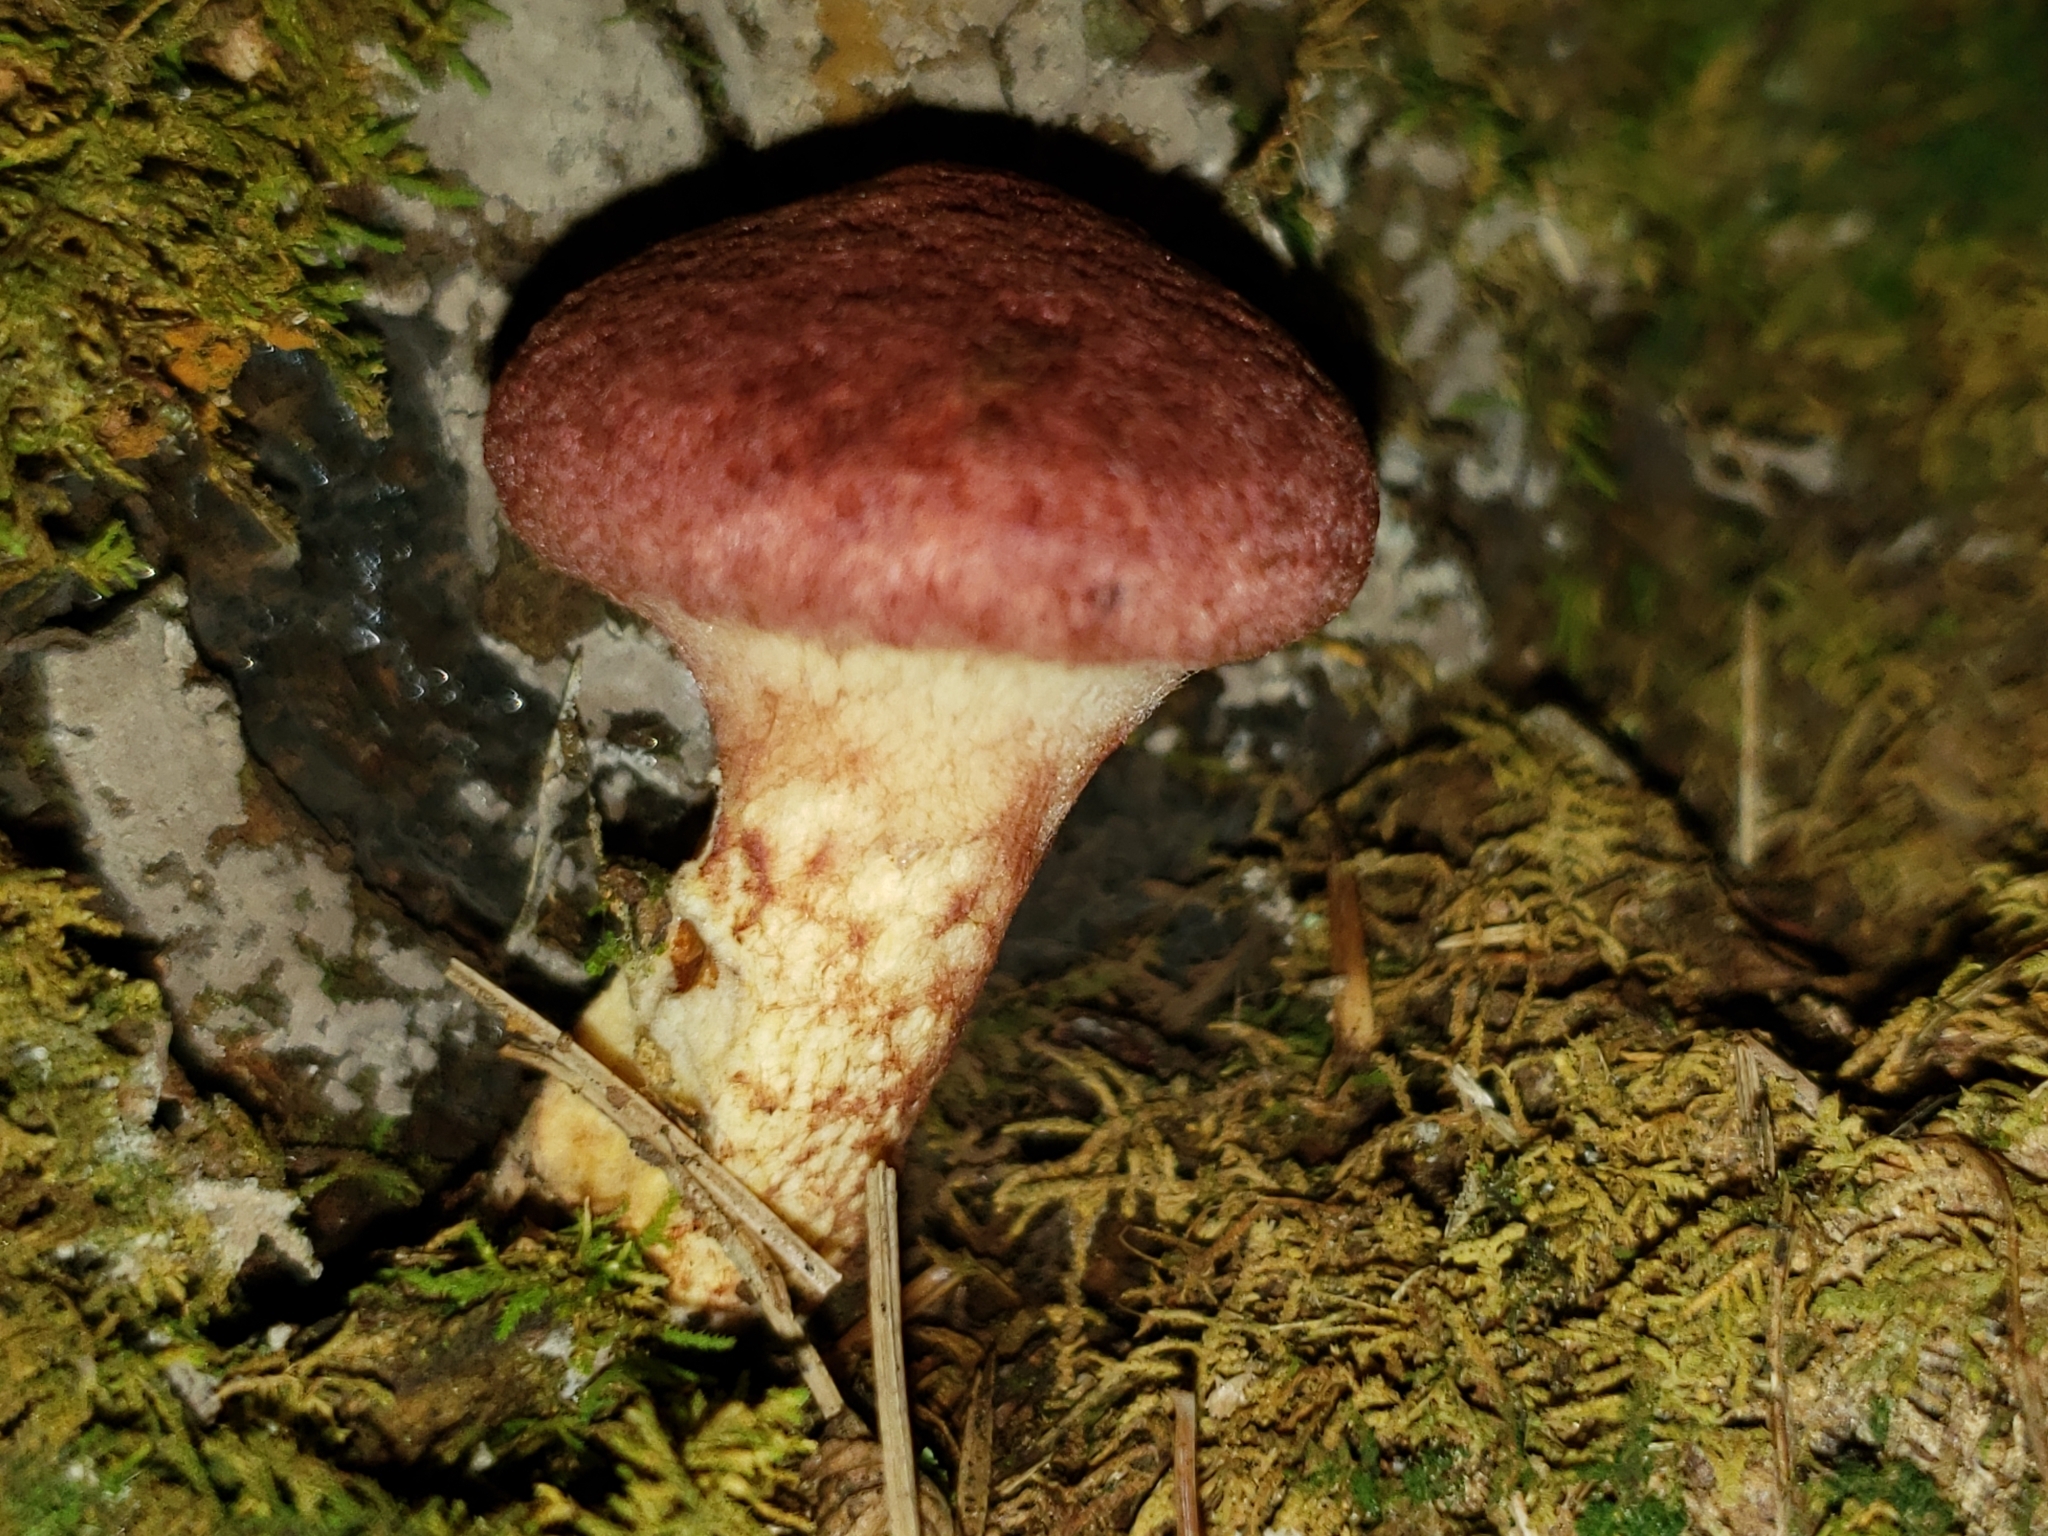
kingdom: Fungi
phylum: Basidiomycota
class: Agaricomycetes
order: Boletales
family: Suillaceae
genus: Suillus
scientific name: Suillus spraguei
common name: Painted suillus
